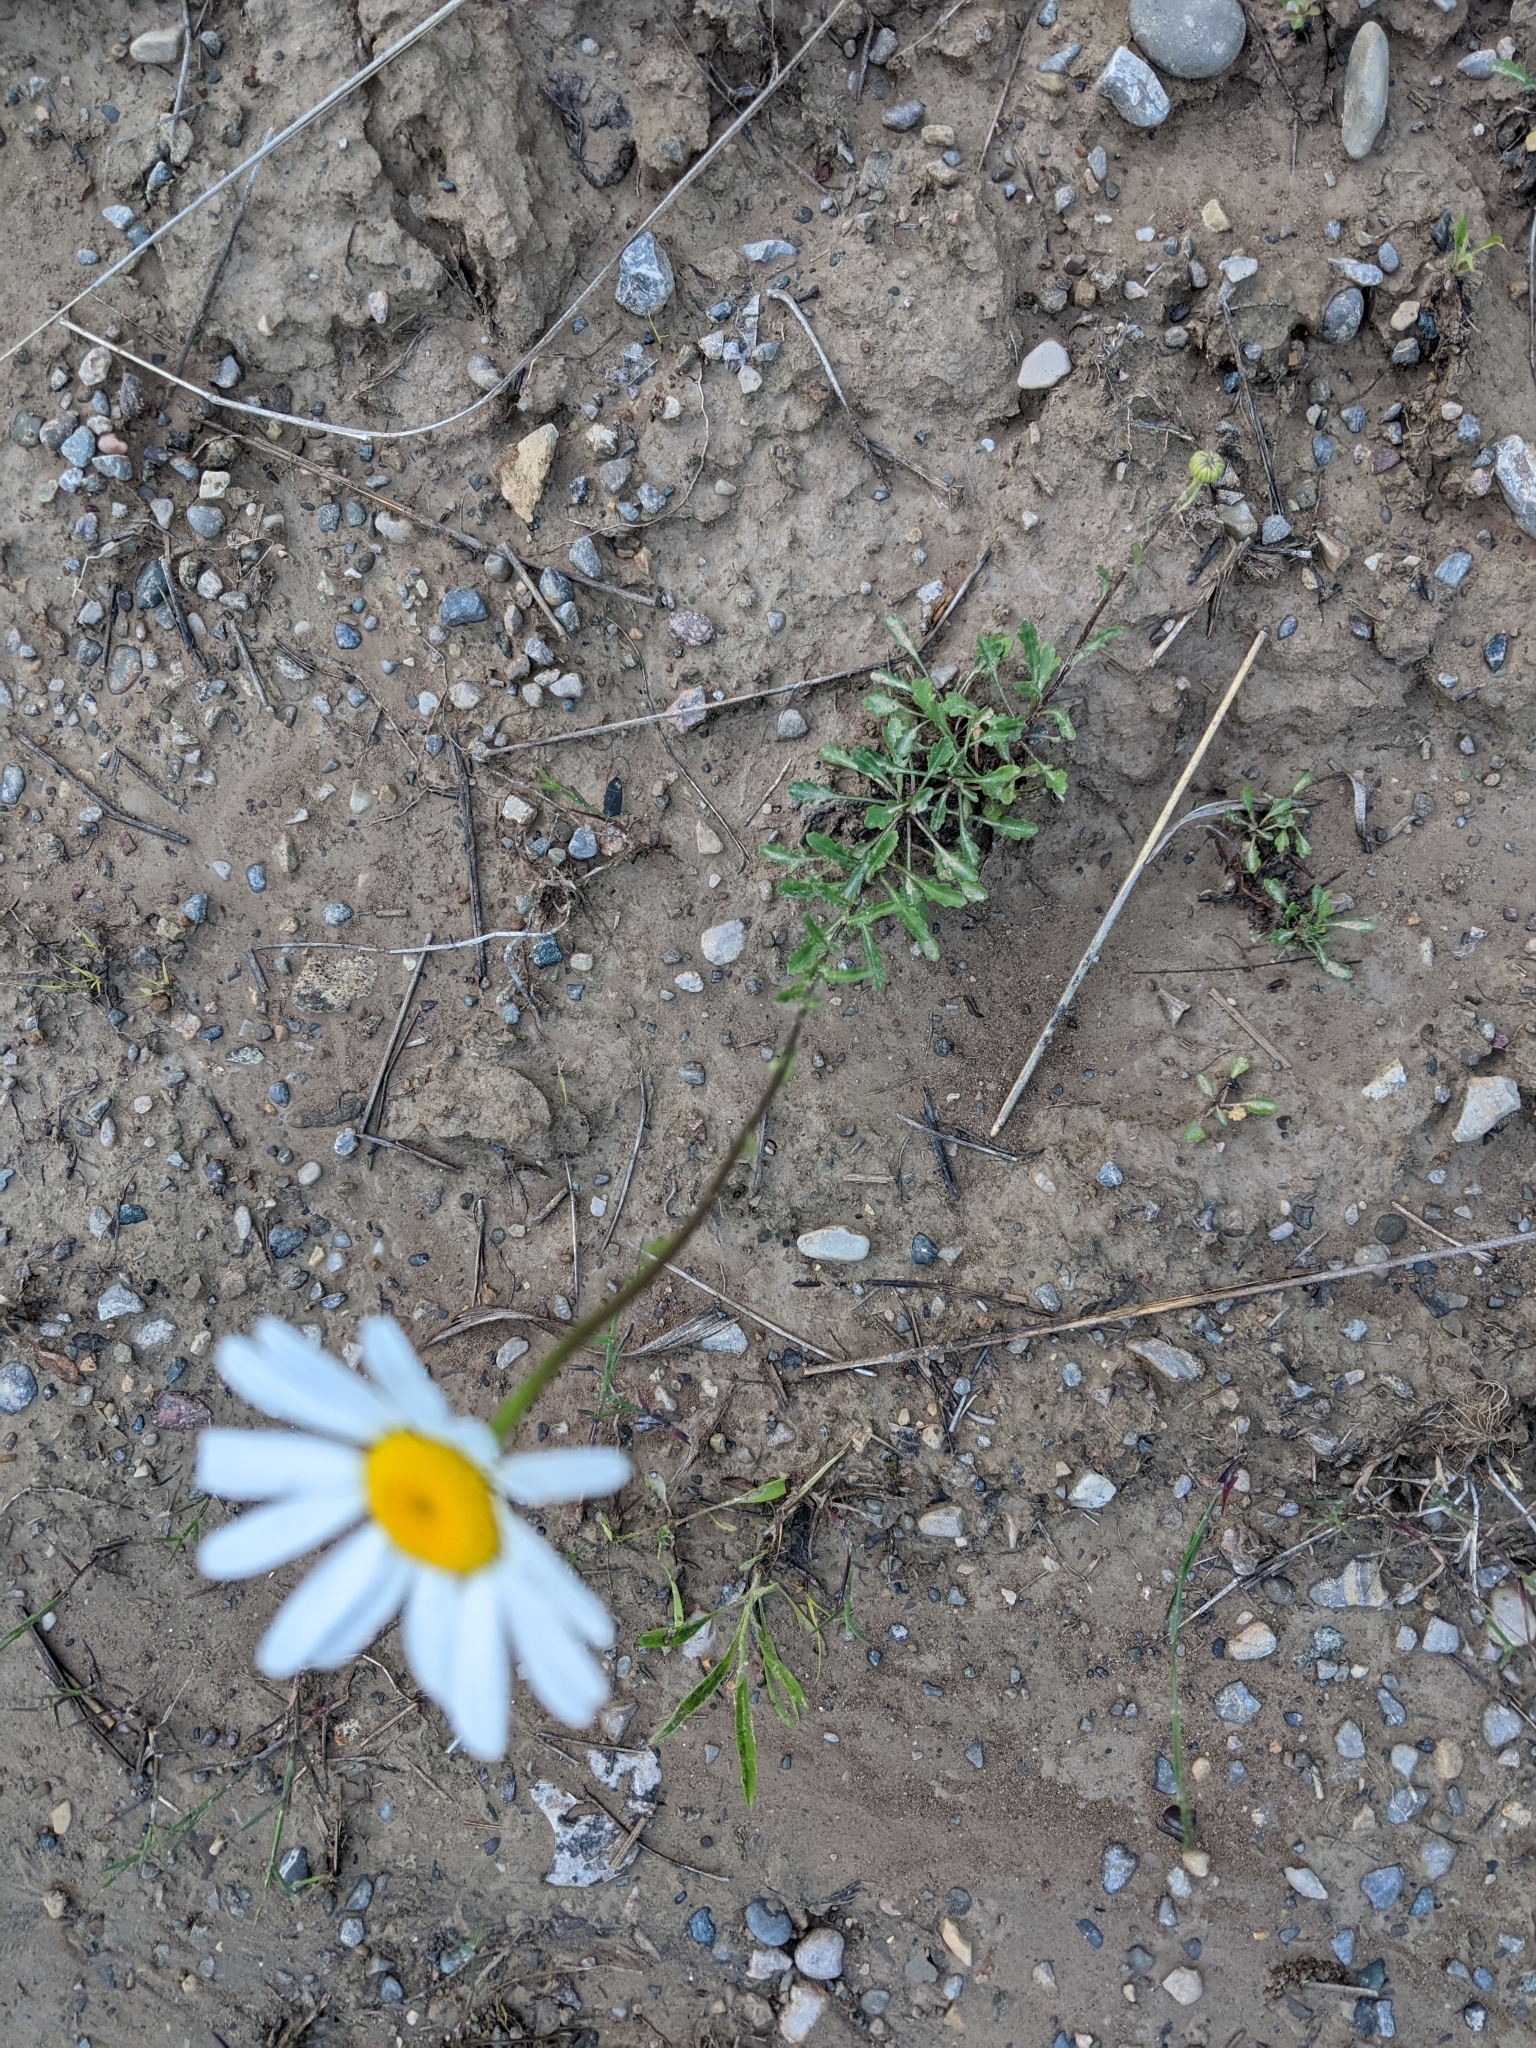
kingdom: Plantae
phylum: Tracheophyta
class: Magnoliopsida
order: Asterales
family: Asteraceae
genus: Leucanthemum
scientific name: Leucanthemum vulgare
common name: Oxeye daisy
